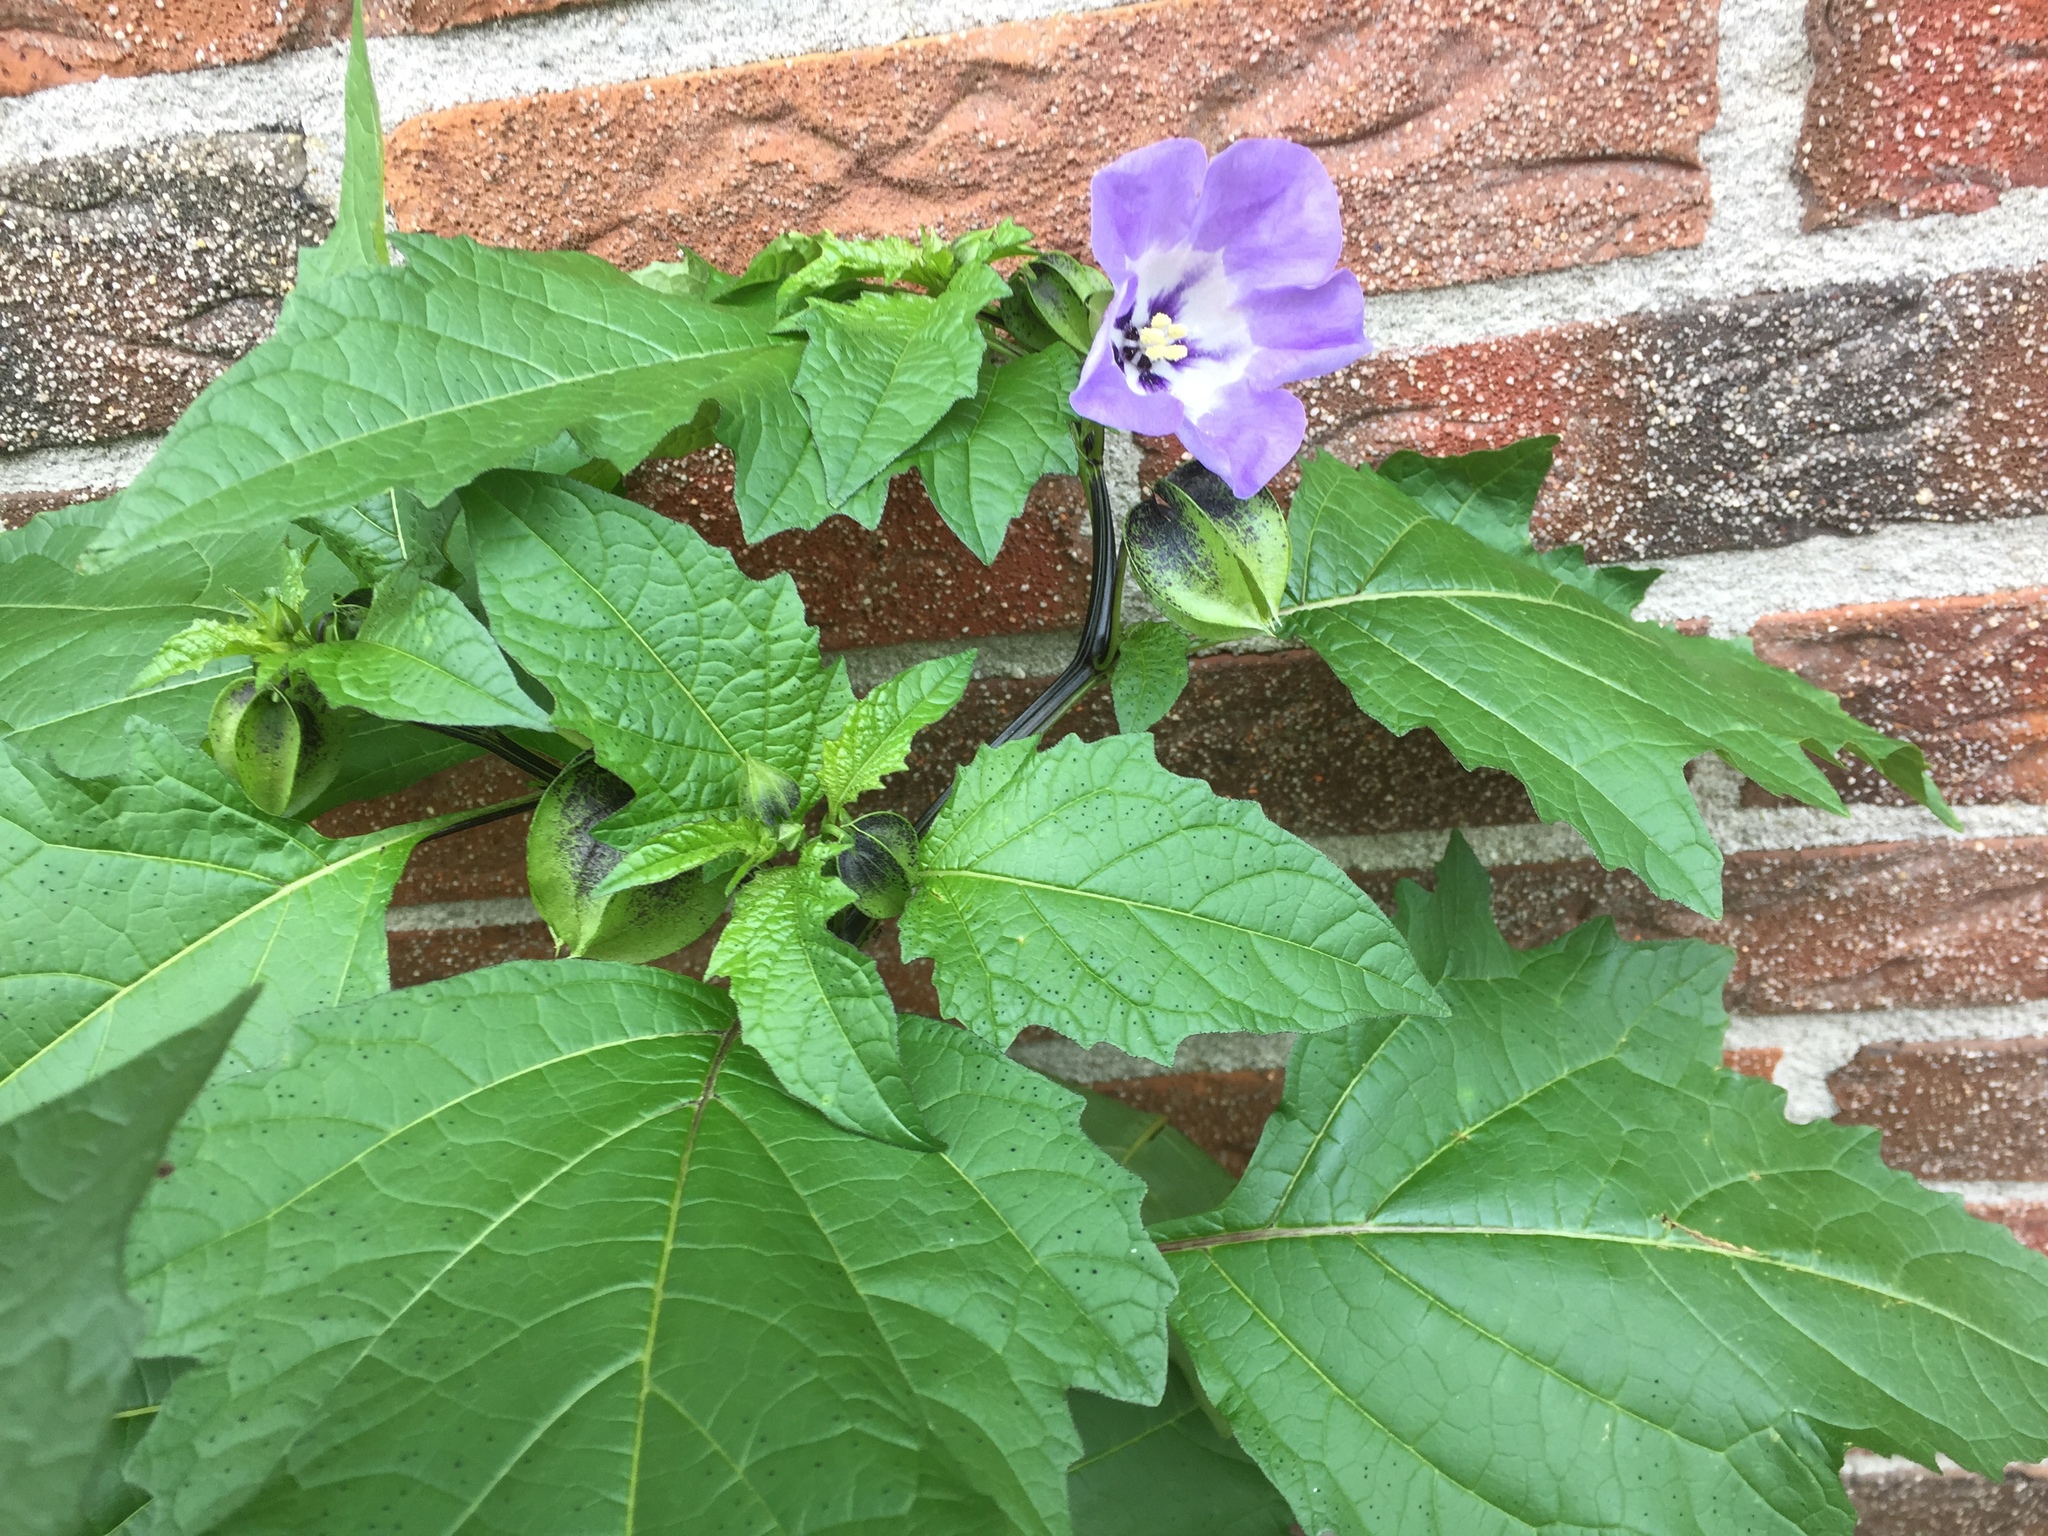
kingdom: Plantae
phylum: Tracheophyta
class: Magnoliopsida
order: Solanales
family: Solanaceae
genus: Nicandra
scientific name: Nicandra physalodes
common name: Apple-of-peru
